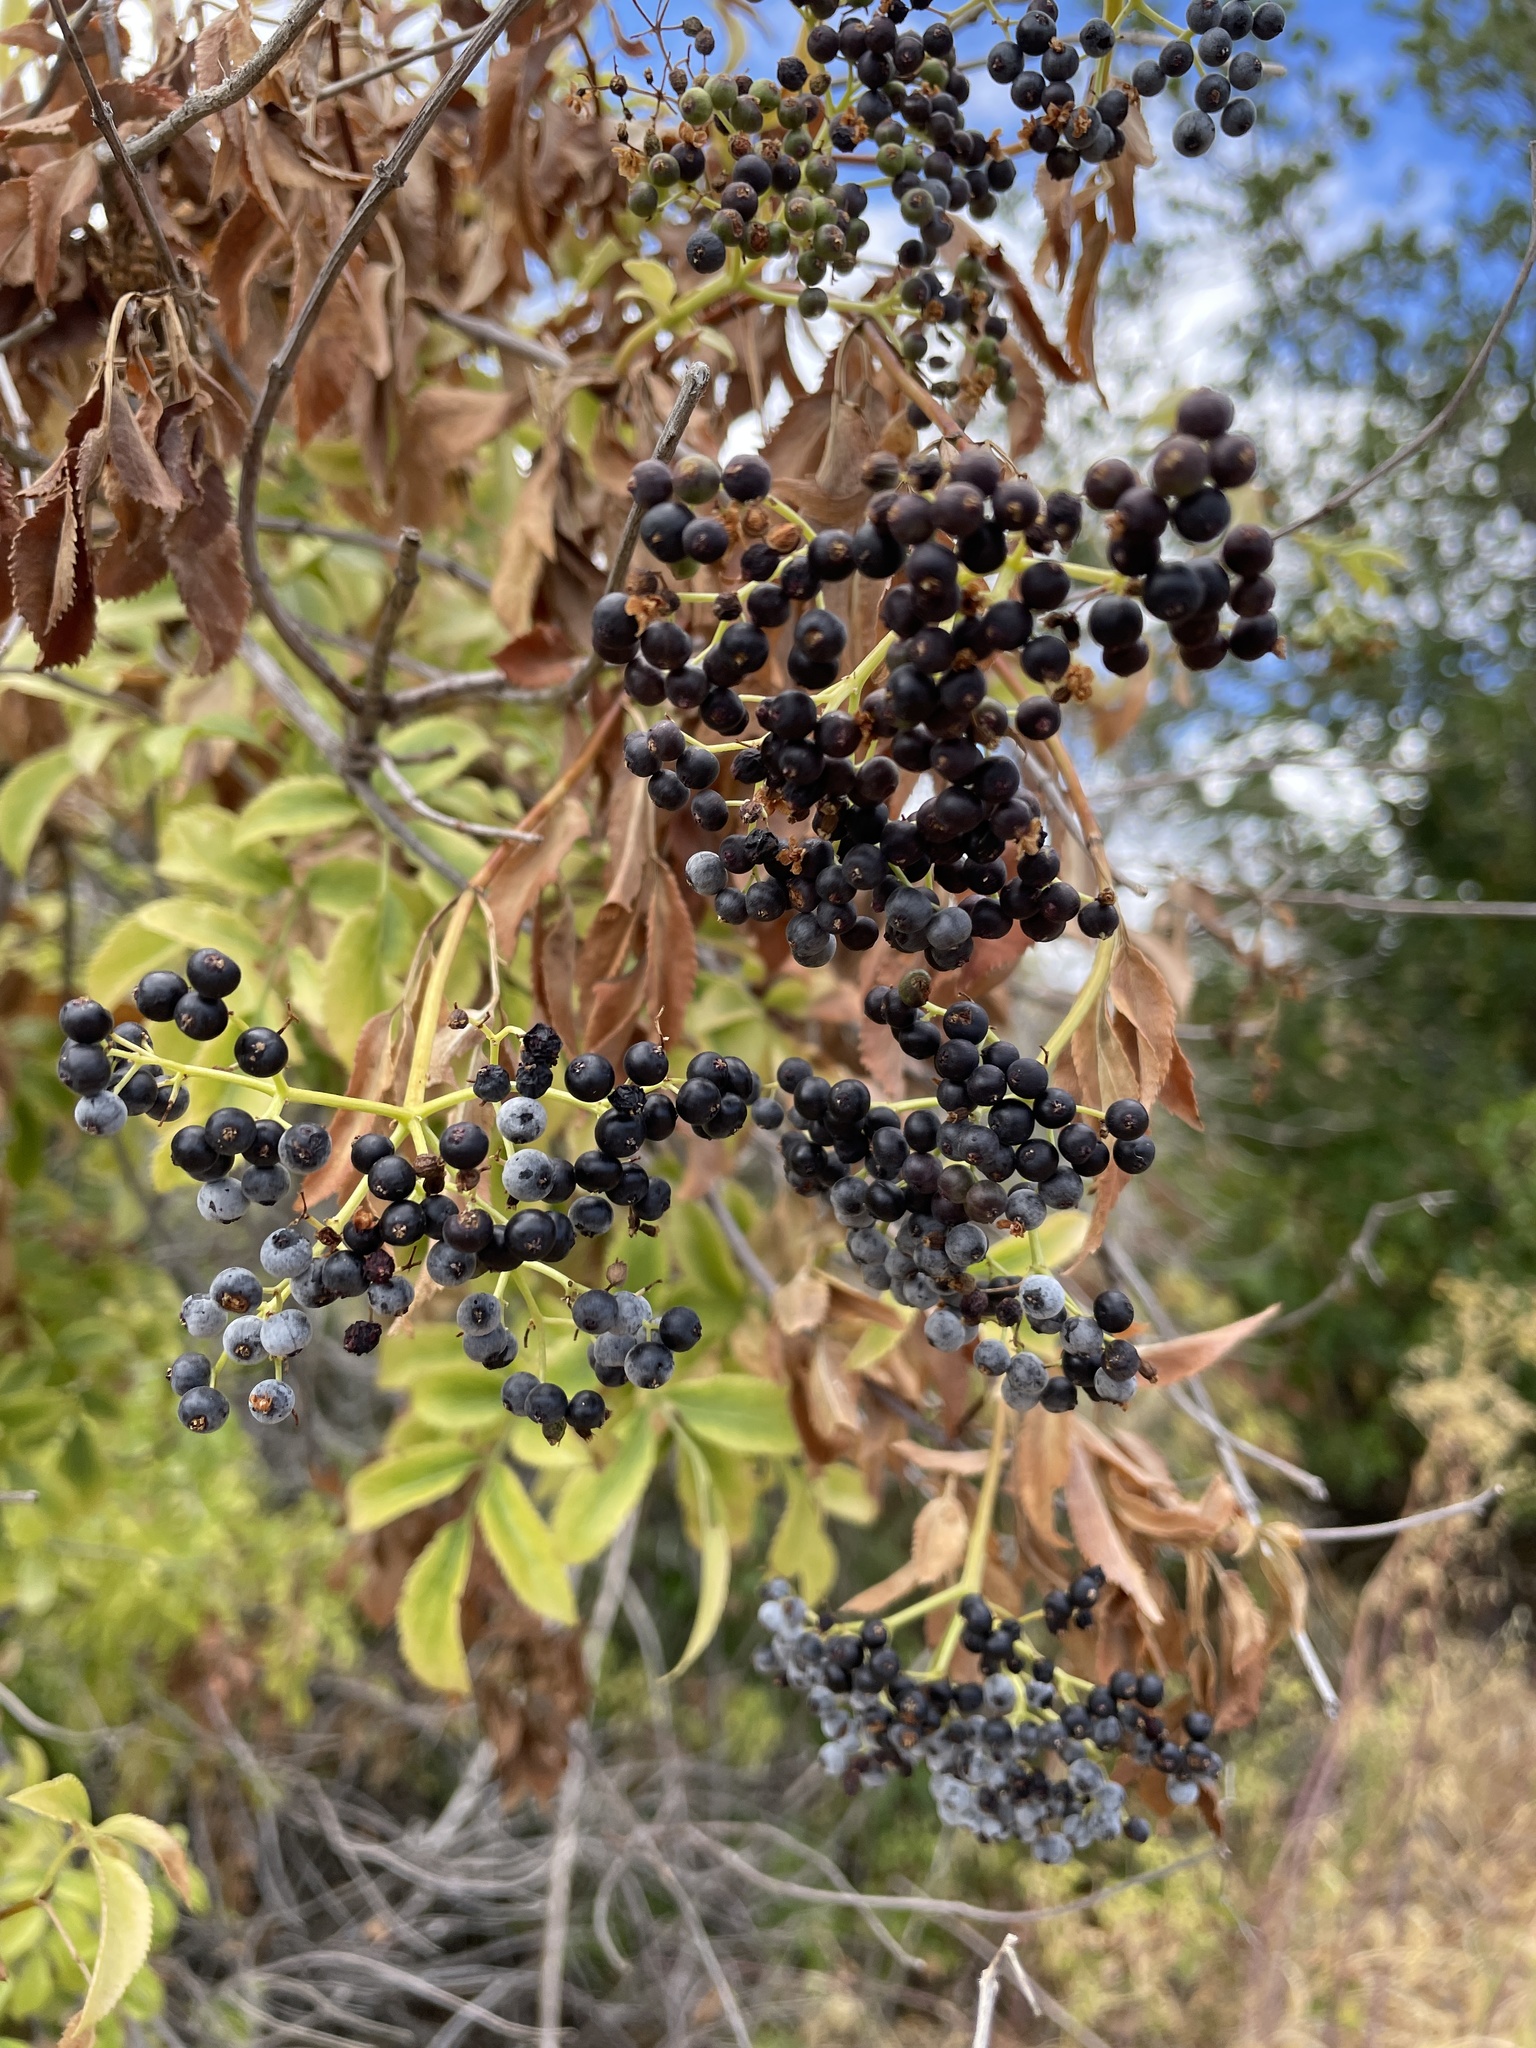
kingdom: Plantae
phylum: Tracheophyta
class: Magnoliopsida
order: Dipsacales
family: Viburnaceae
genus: Sambucus
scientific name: Sambucus cerulea
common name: Blue elder
